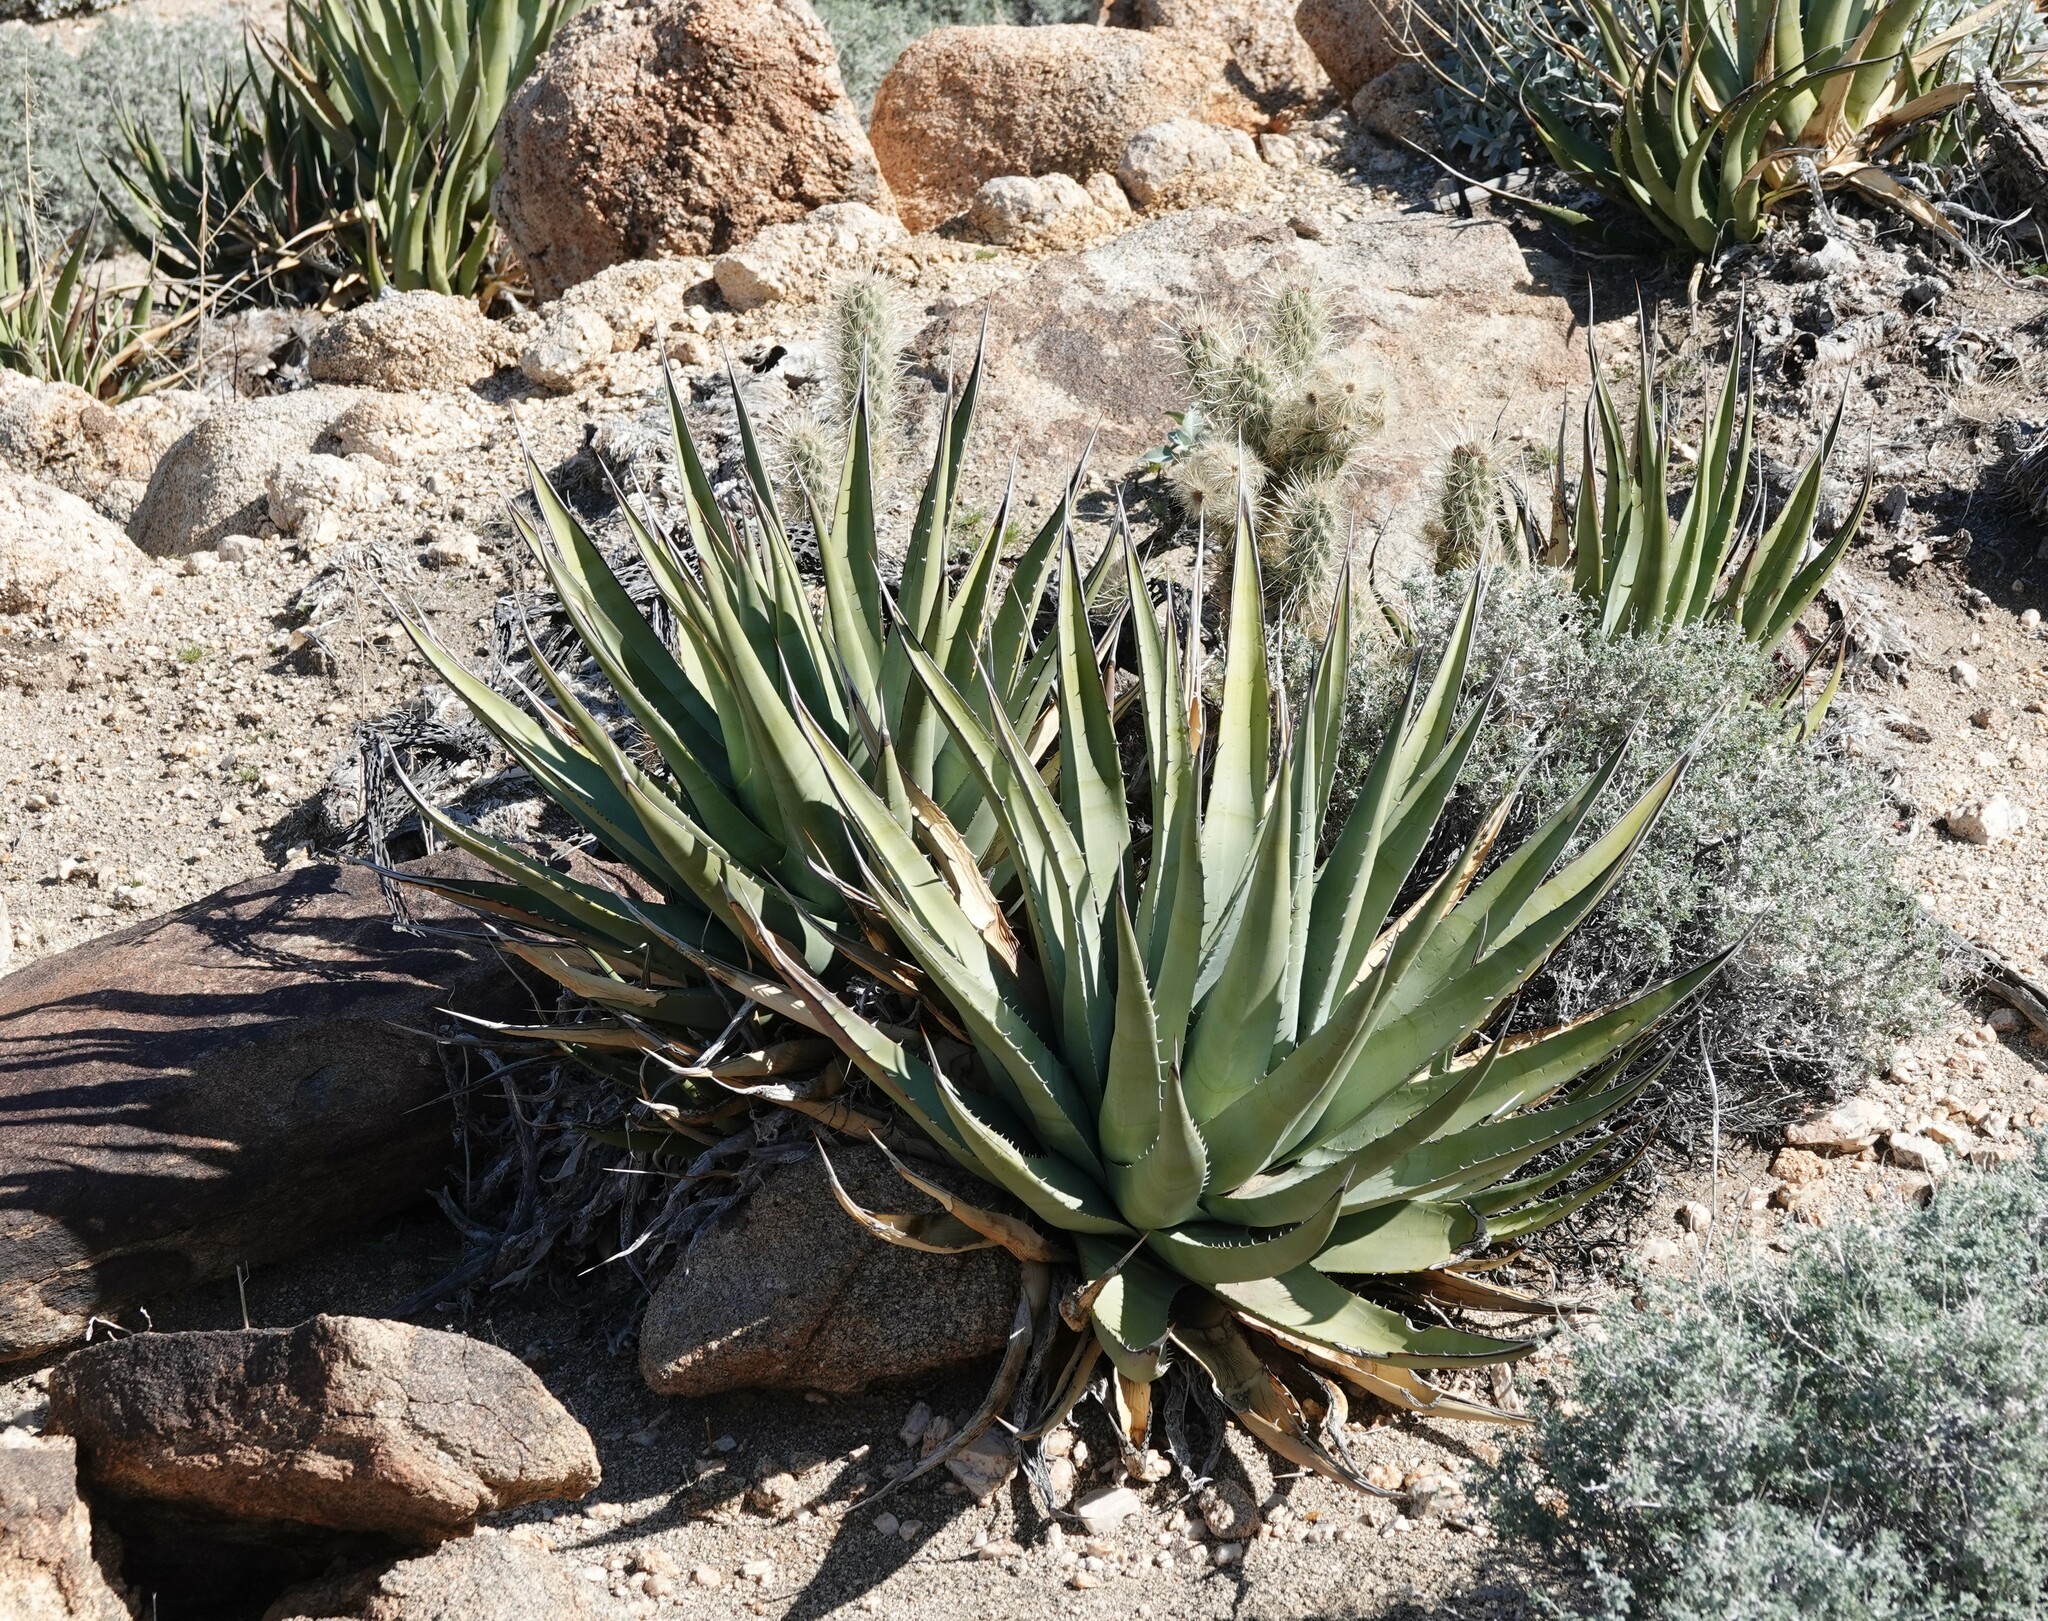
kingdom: Plantae
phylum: Tracheophyta
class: Liliopsida
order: Asparagales
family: Asparagaceae
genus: Agave
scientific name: Agave deserti
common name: Desert agave
